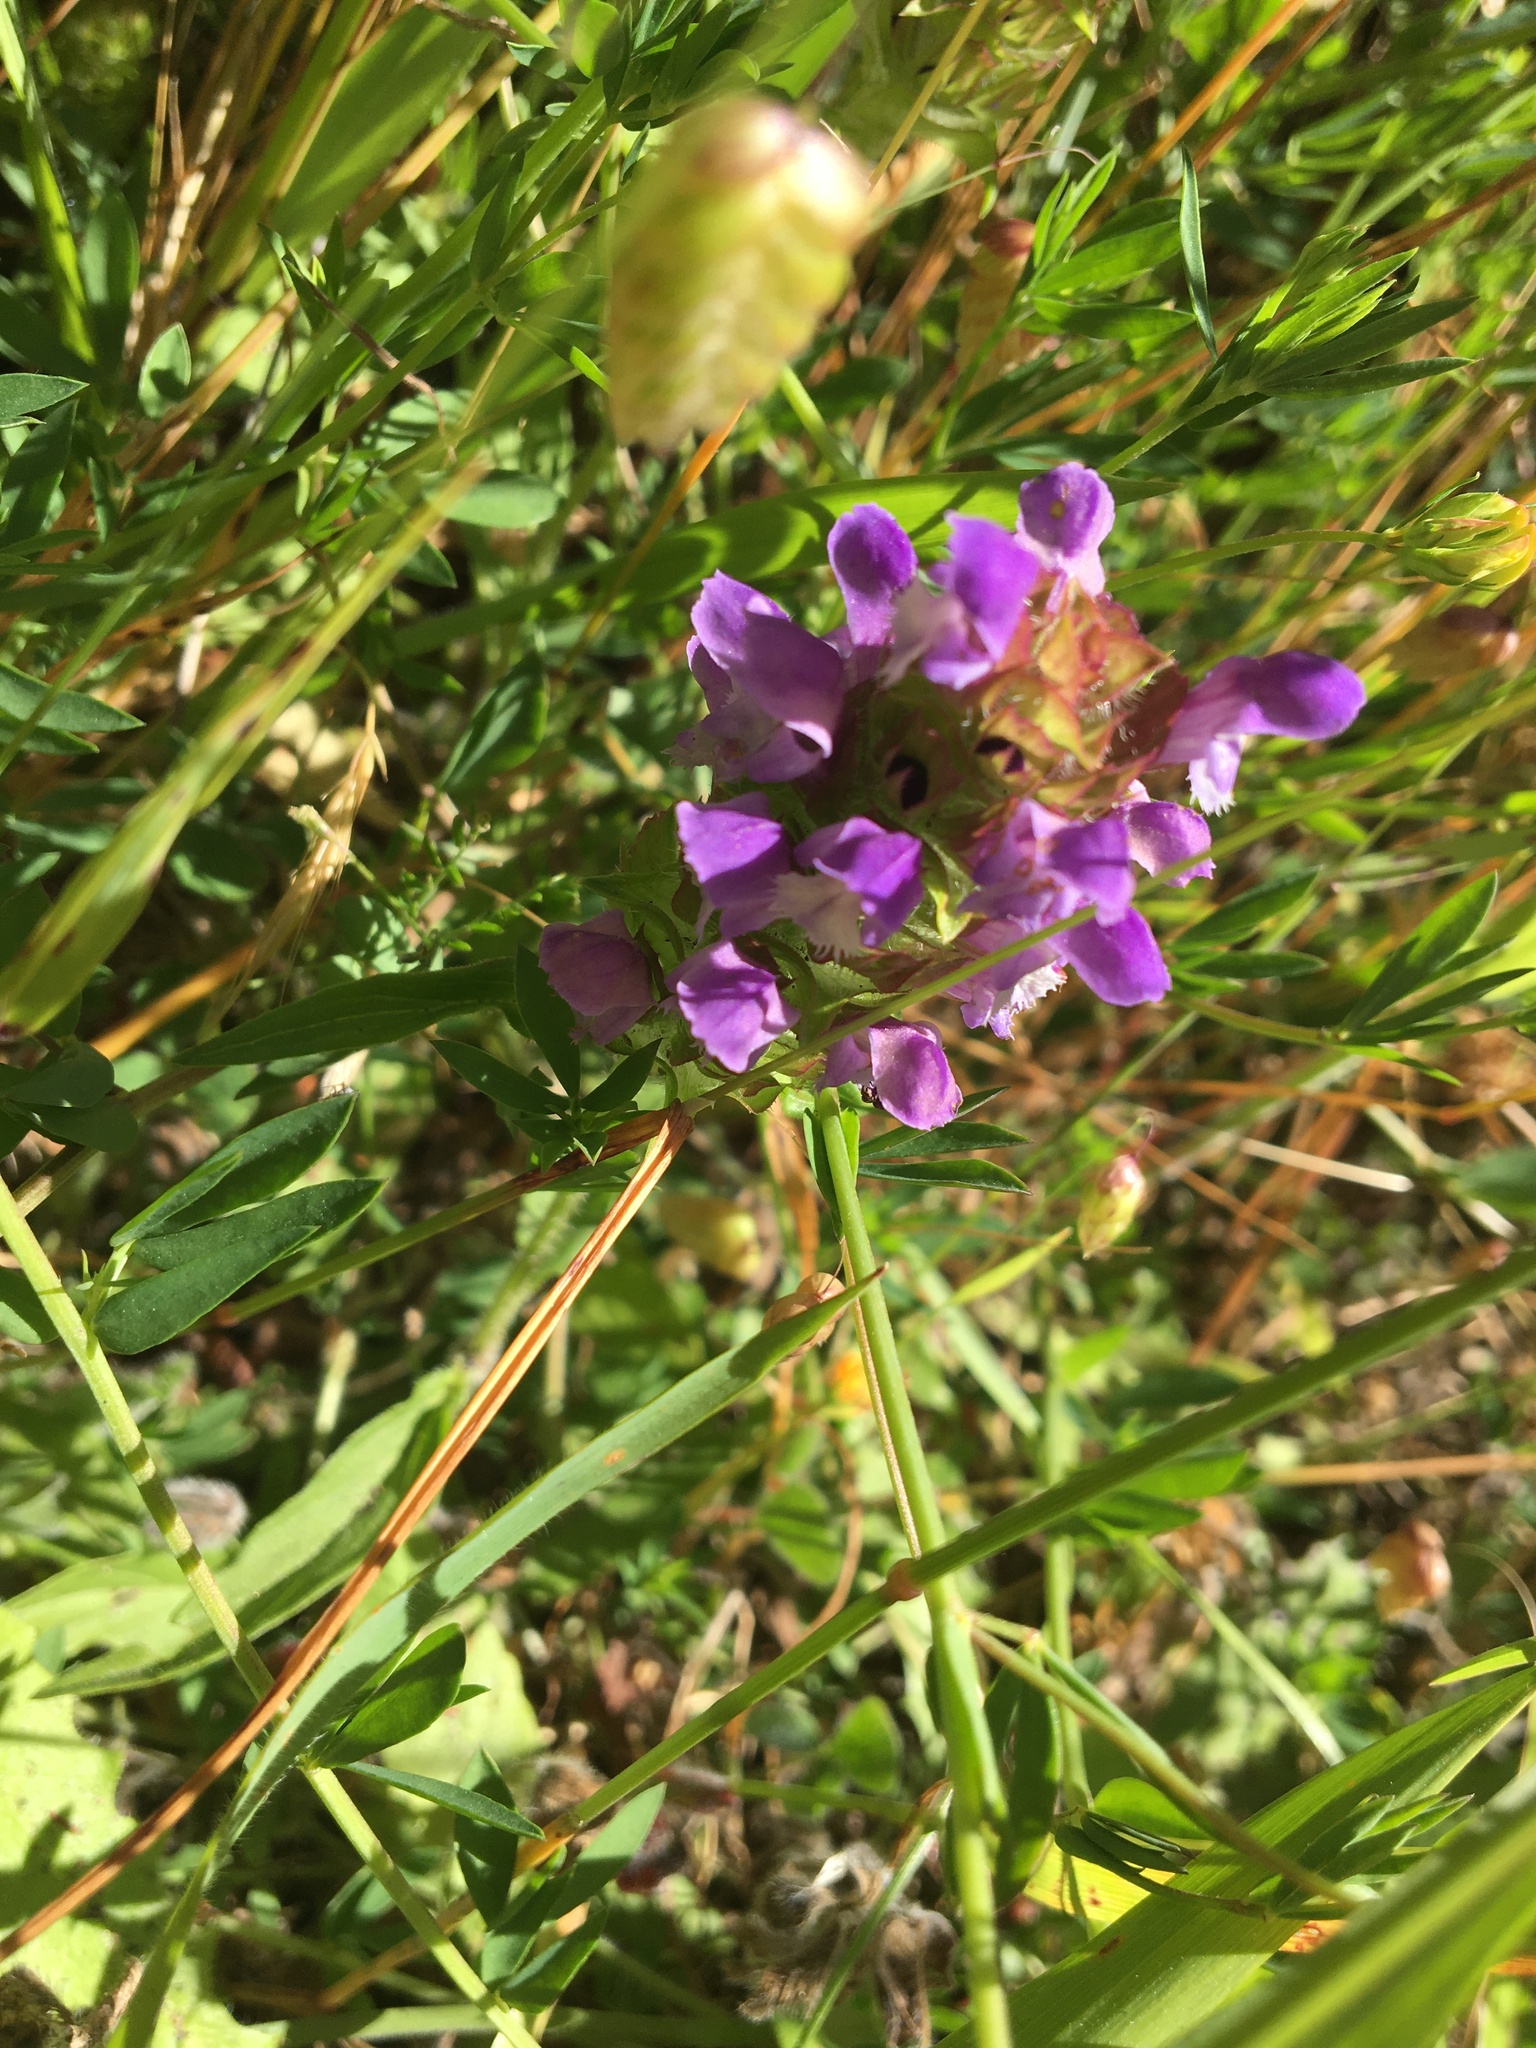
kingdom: Plantae
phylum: Tracheophyta
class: Magnoliopsida
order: Lamiales
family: Lamiaceae
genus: Prunella
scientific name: Prunella vulgaris
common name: Heal-all
